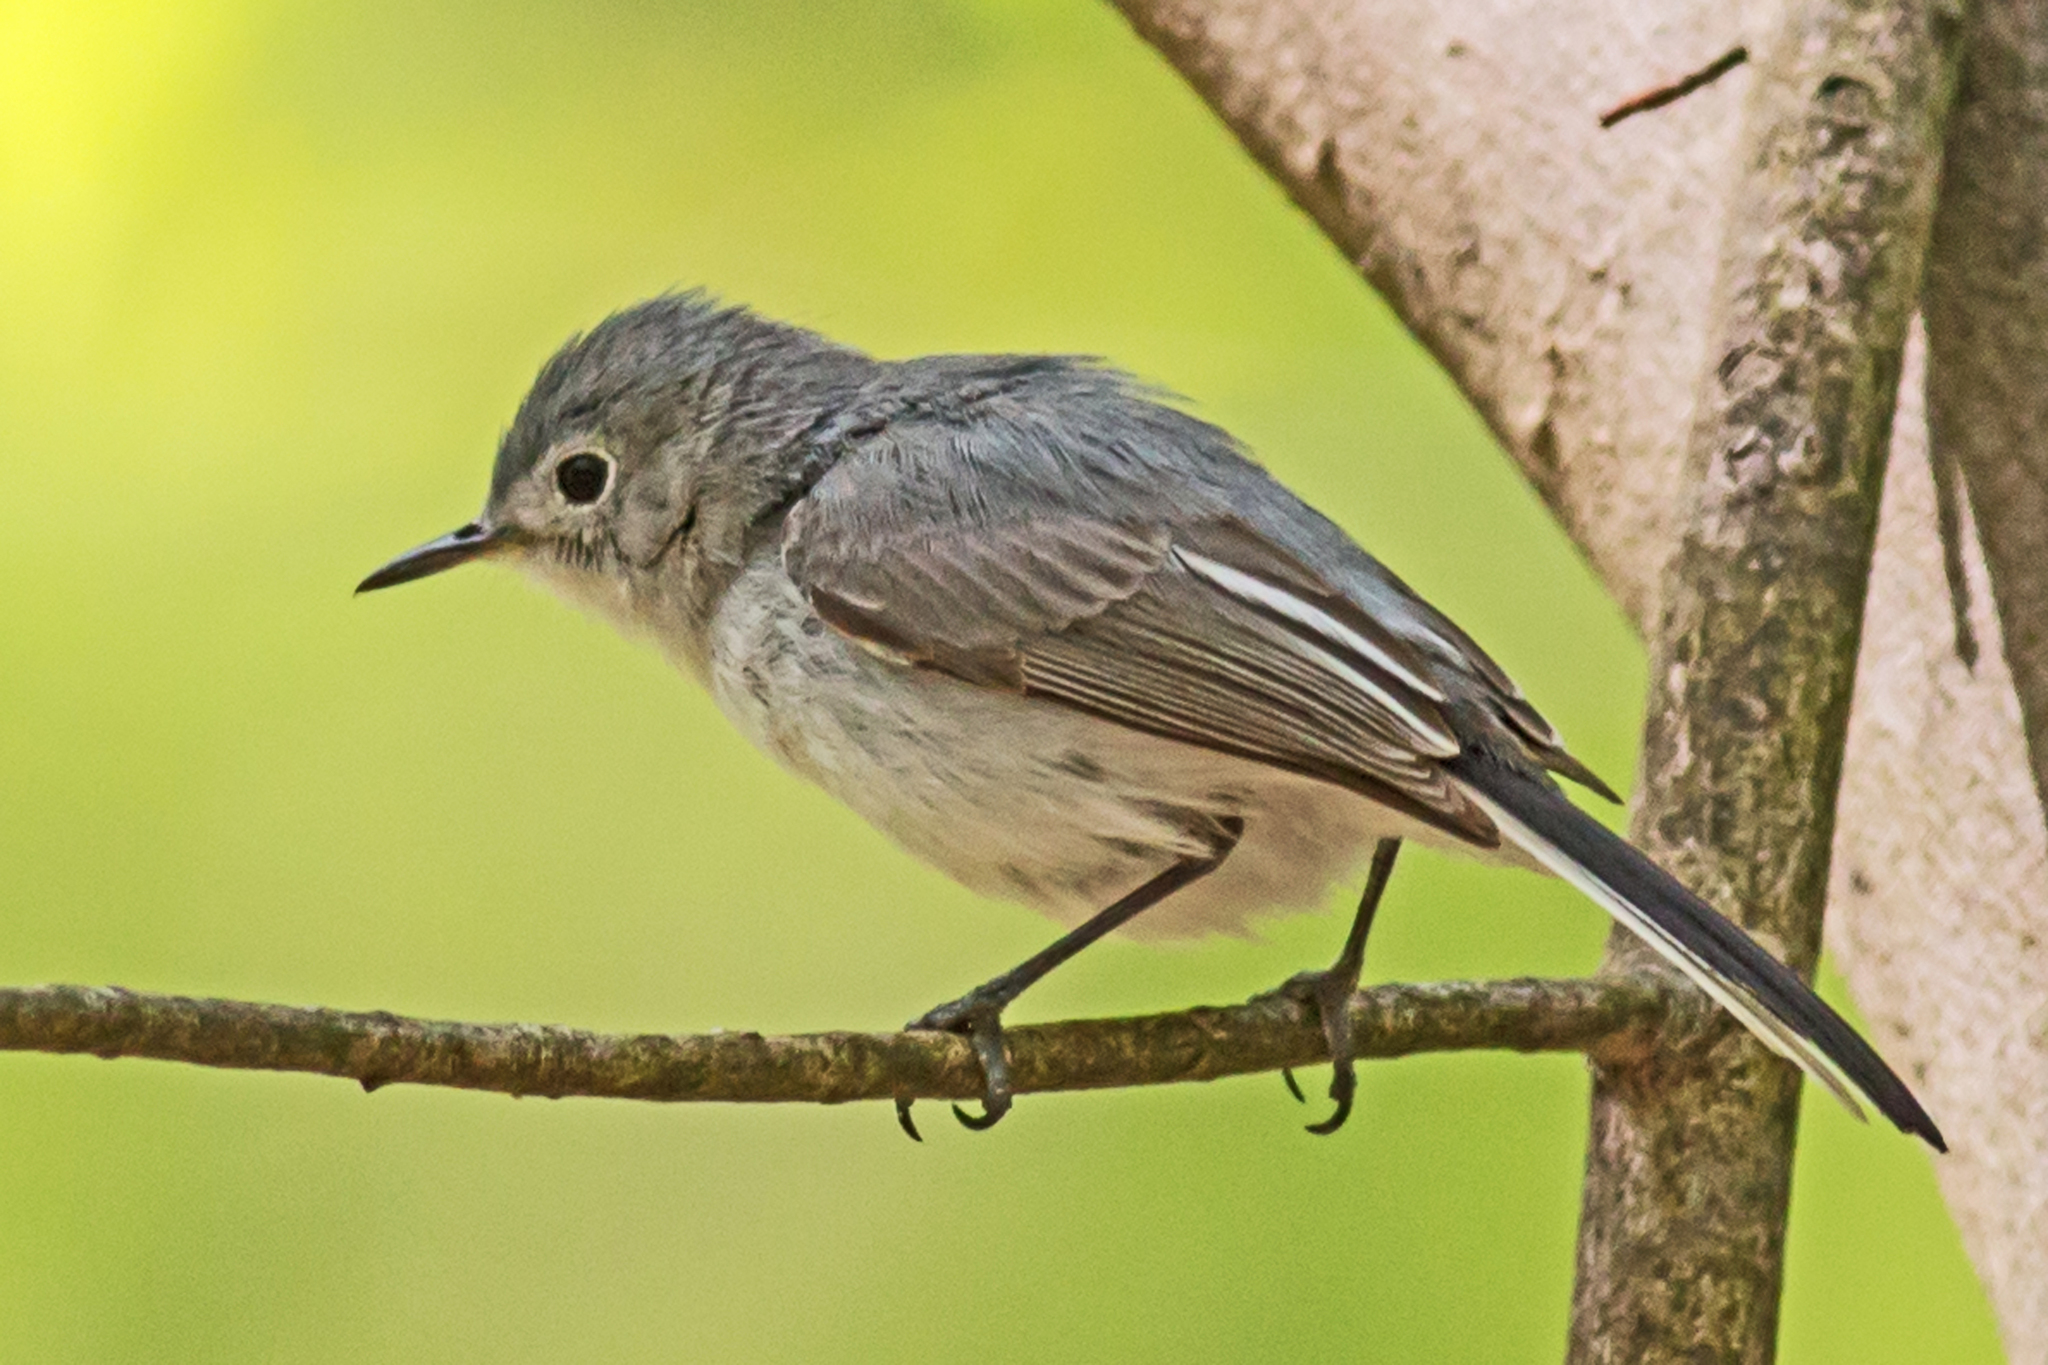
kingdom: Animalia
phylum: Chordata
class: Aves
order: Passeriformes
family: Polioptilidae
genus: Polioptila
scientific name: Polioptila caerulea
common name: Blue-gray gnatcatcher
